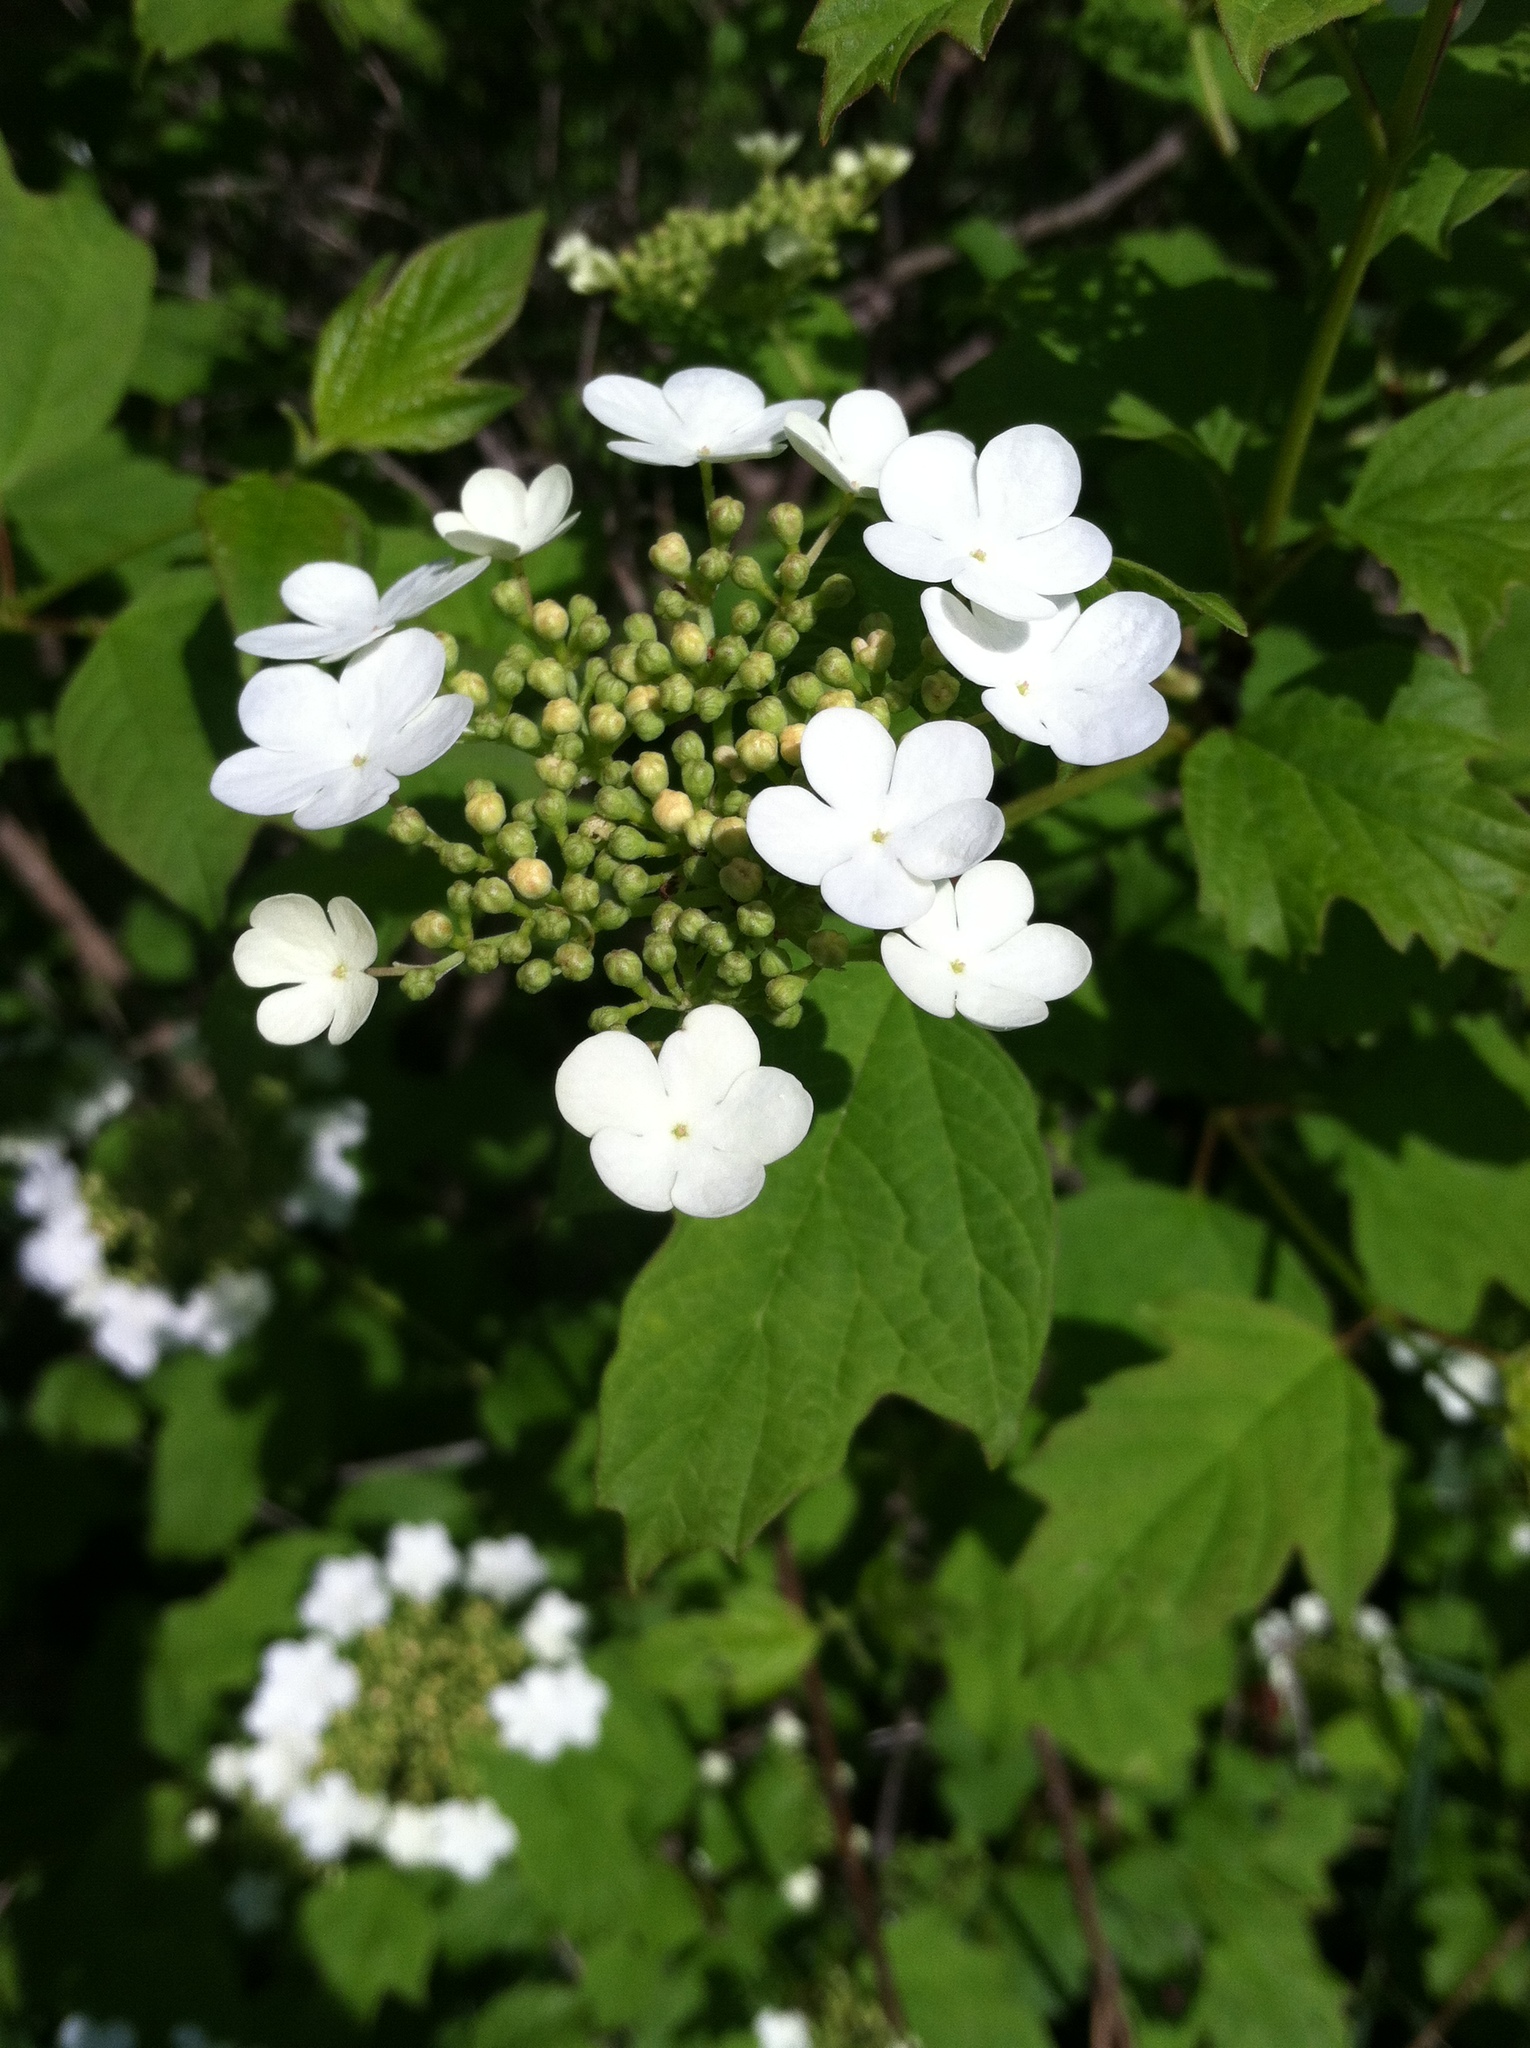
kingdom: Plantae
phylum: Tracheophyta
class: Magnoliopsida
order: Dipsacales
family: Viburnaceae
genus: Viburnum
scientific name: Viburnum opulus
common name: Guelder-rose
